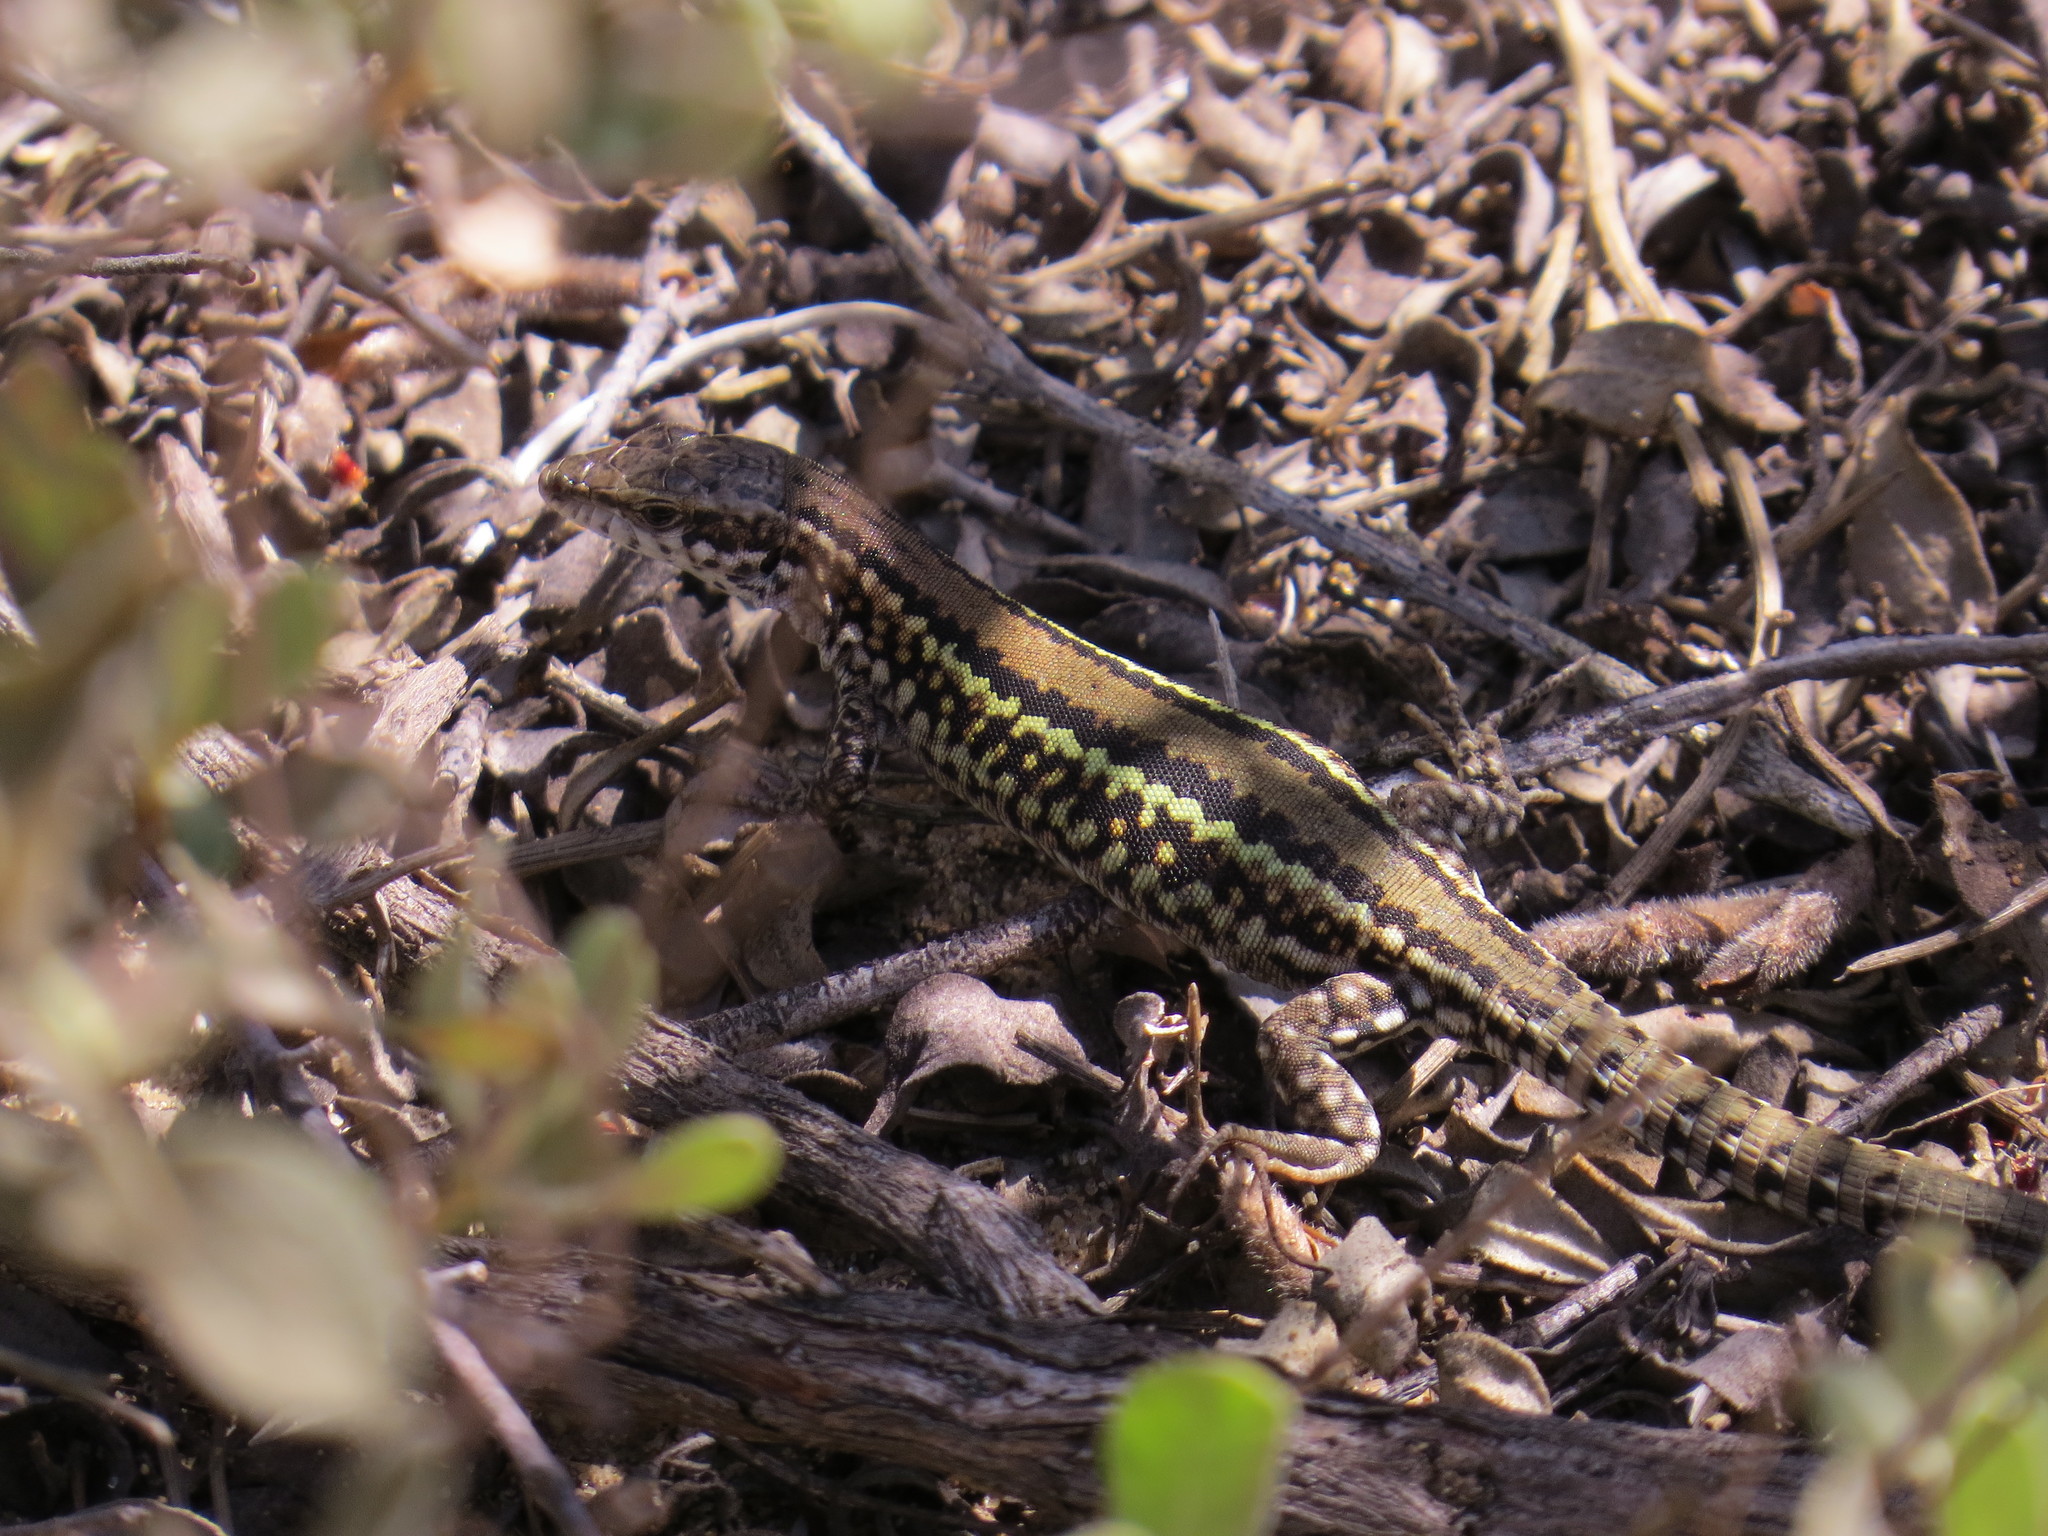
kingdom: Animalia
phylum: Chordata
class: Squamata
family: Lacertidae
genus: Podarcis
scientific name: Podarcis carbonelli
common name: Carbonelli's wall lizard
